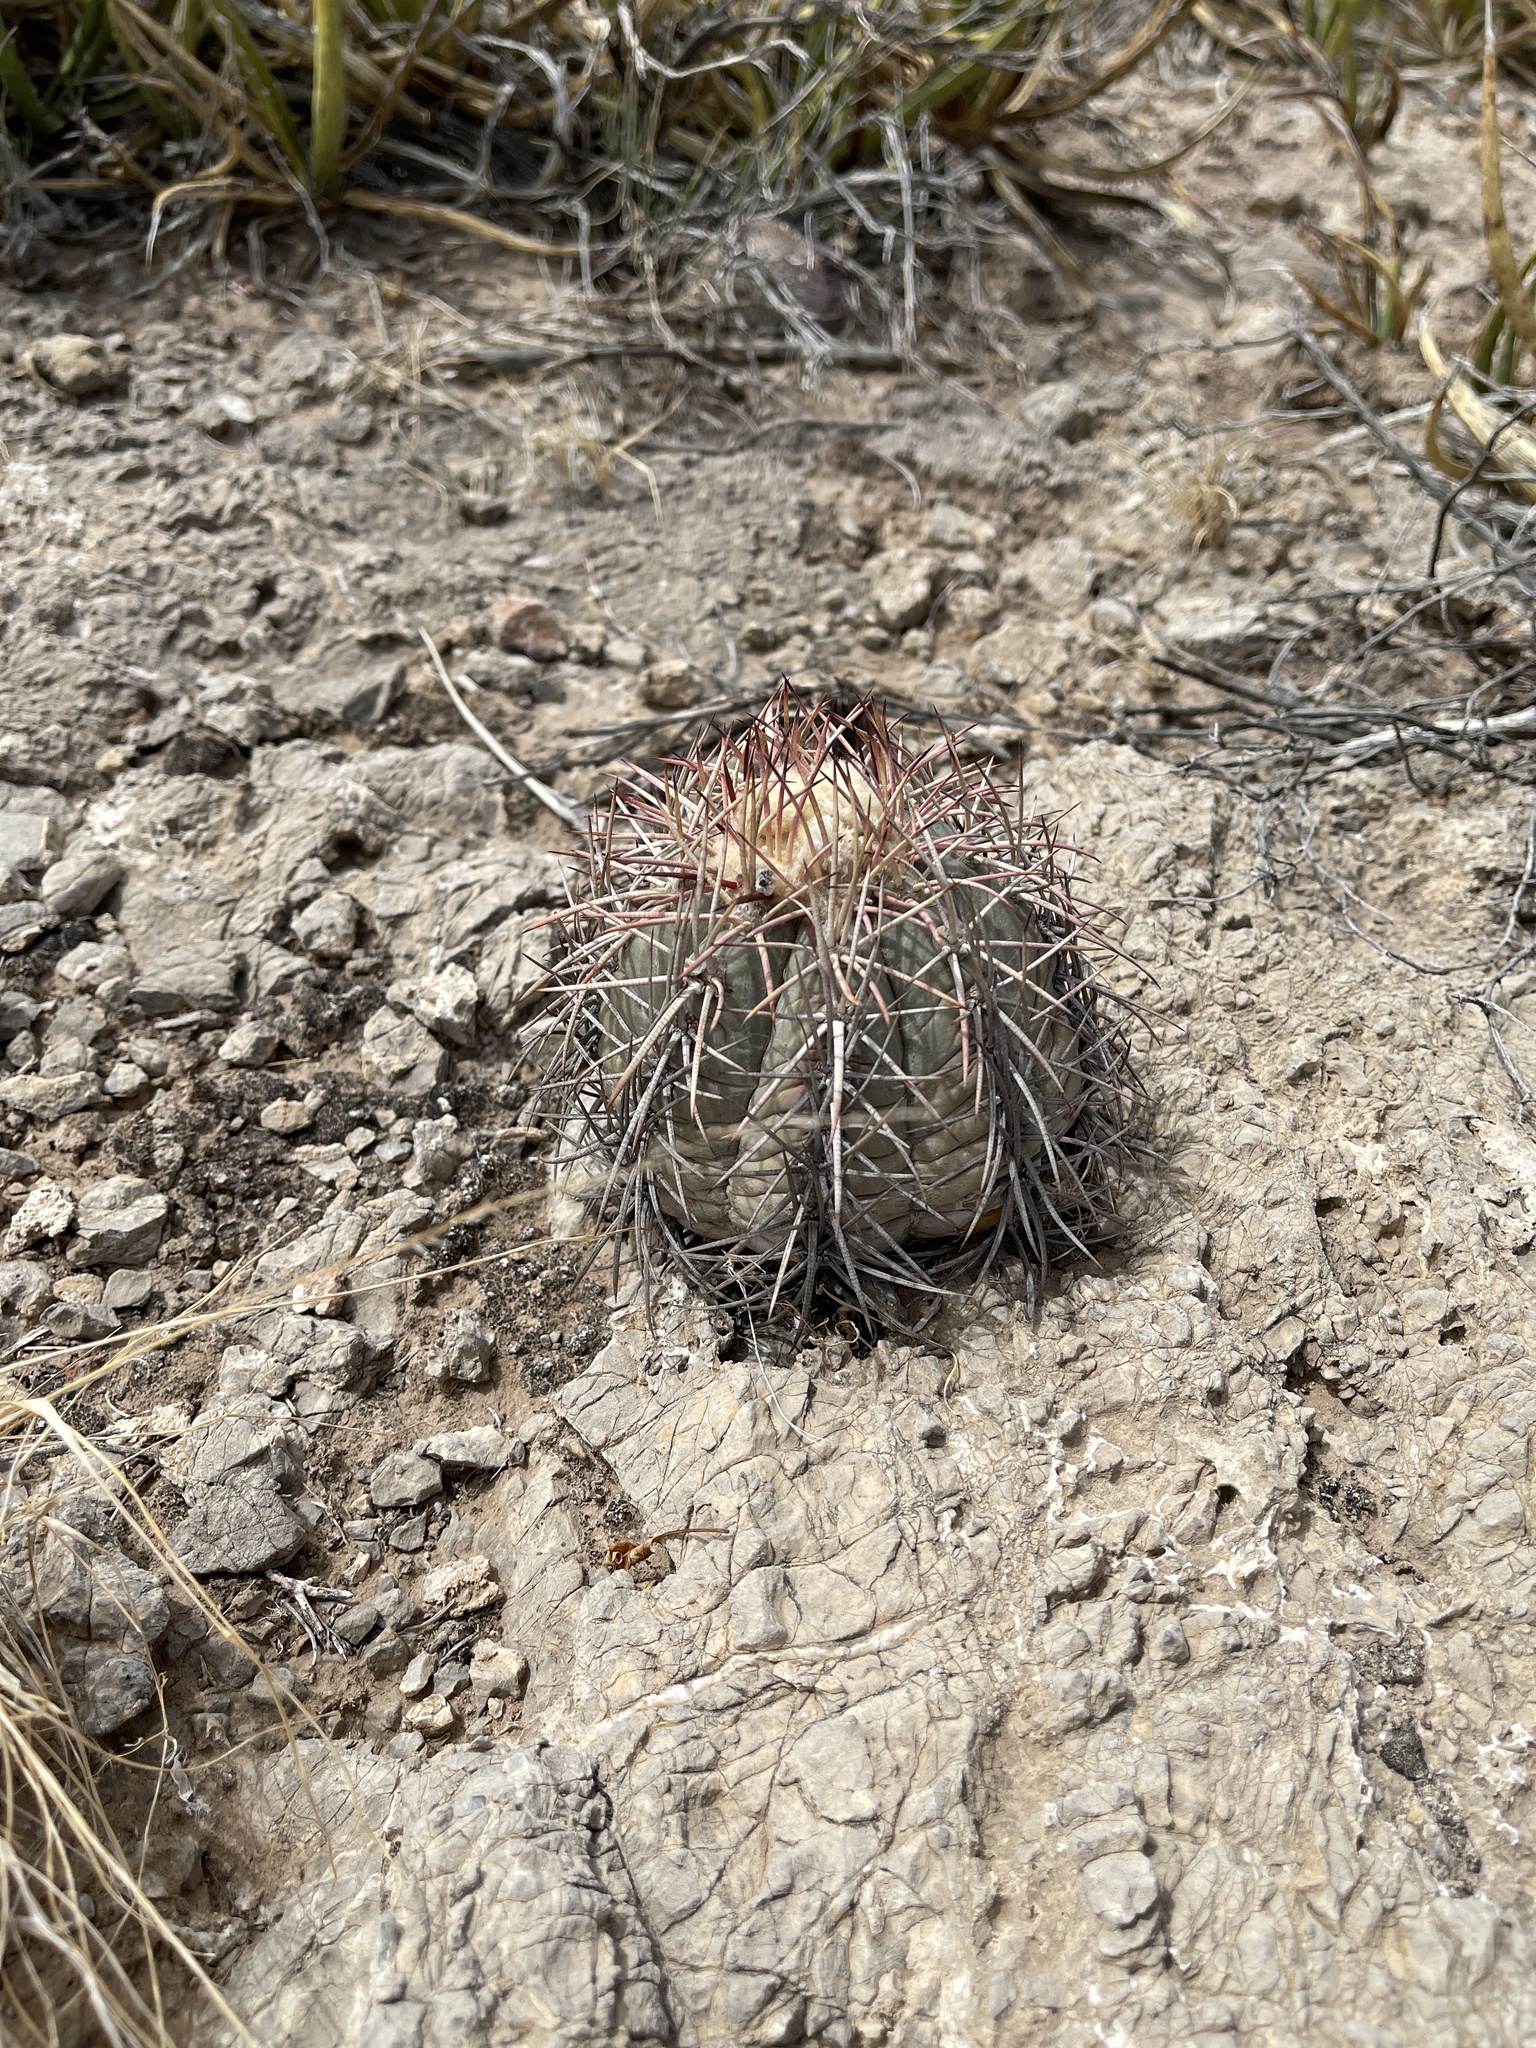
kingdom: Plantae
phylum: Tracheophyta
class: Magnoliopsida
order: Caryophyllales
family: Cactaceae
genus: Echinocactus
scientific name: Echinocactus horizonthalonius
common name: Devilshead
